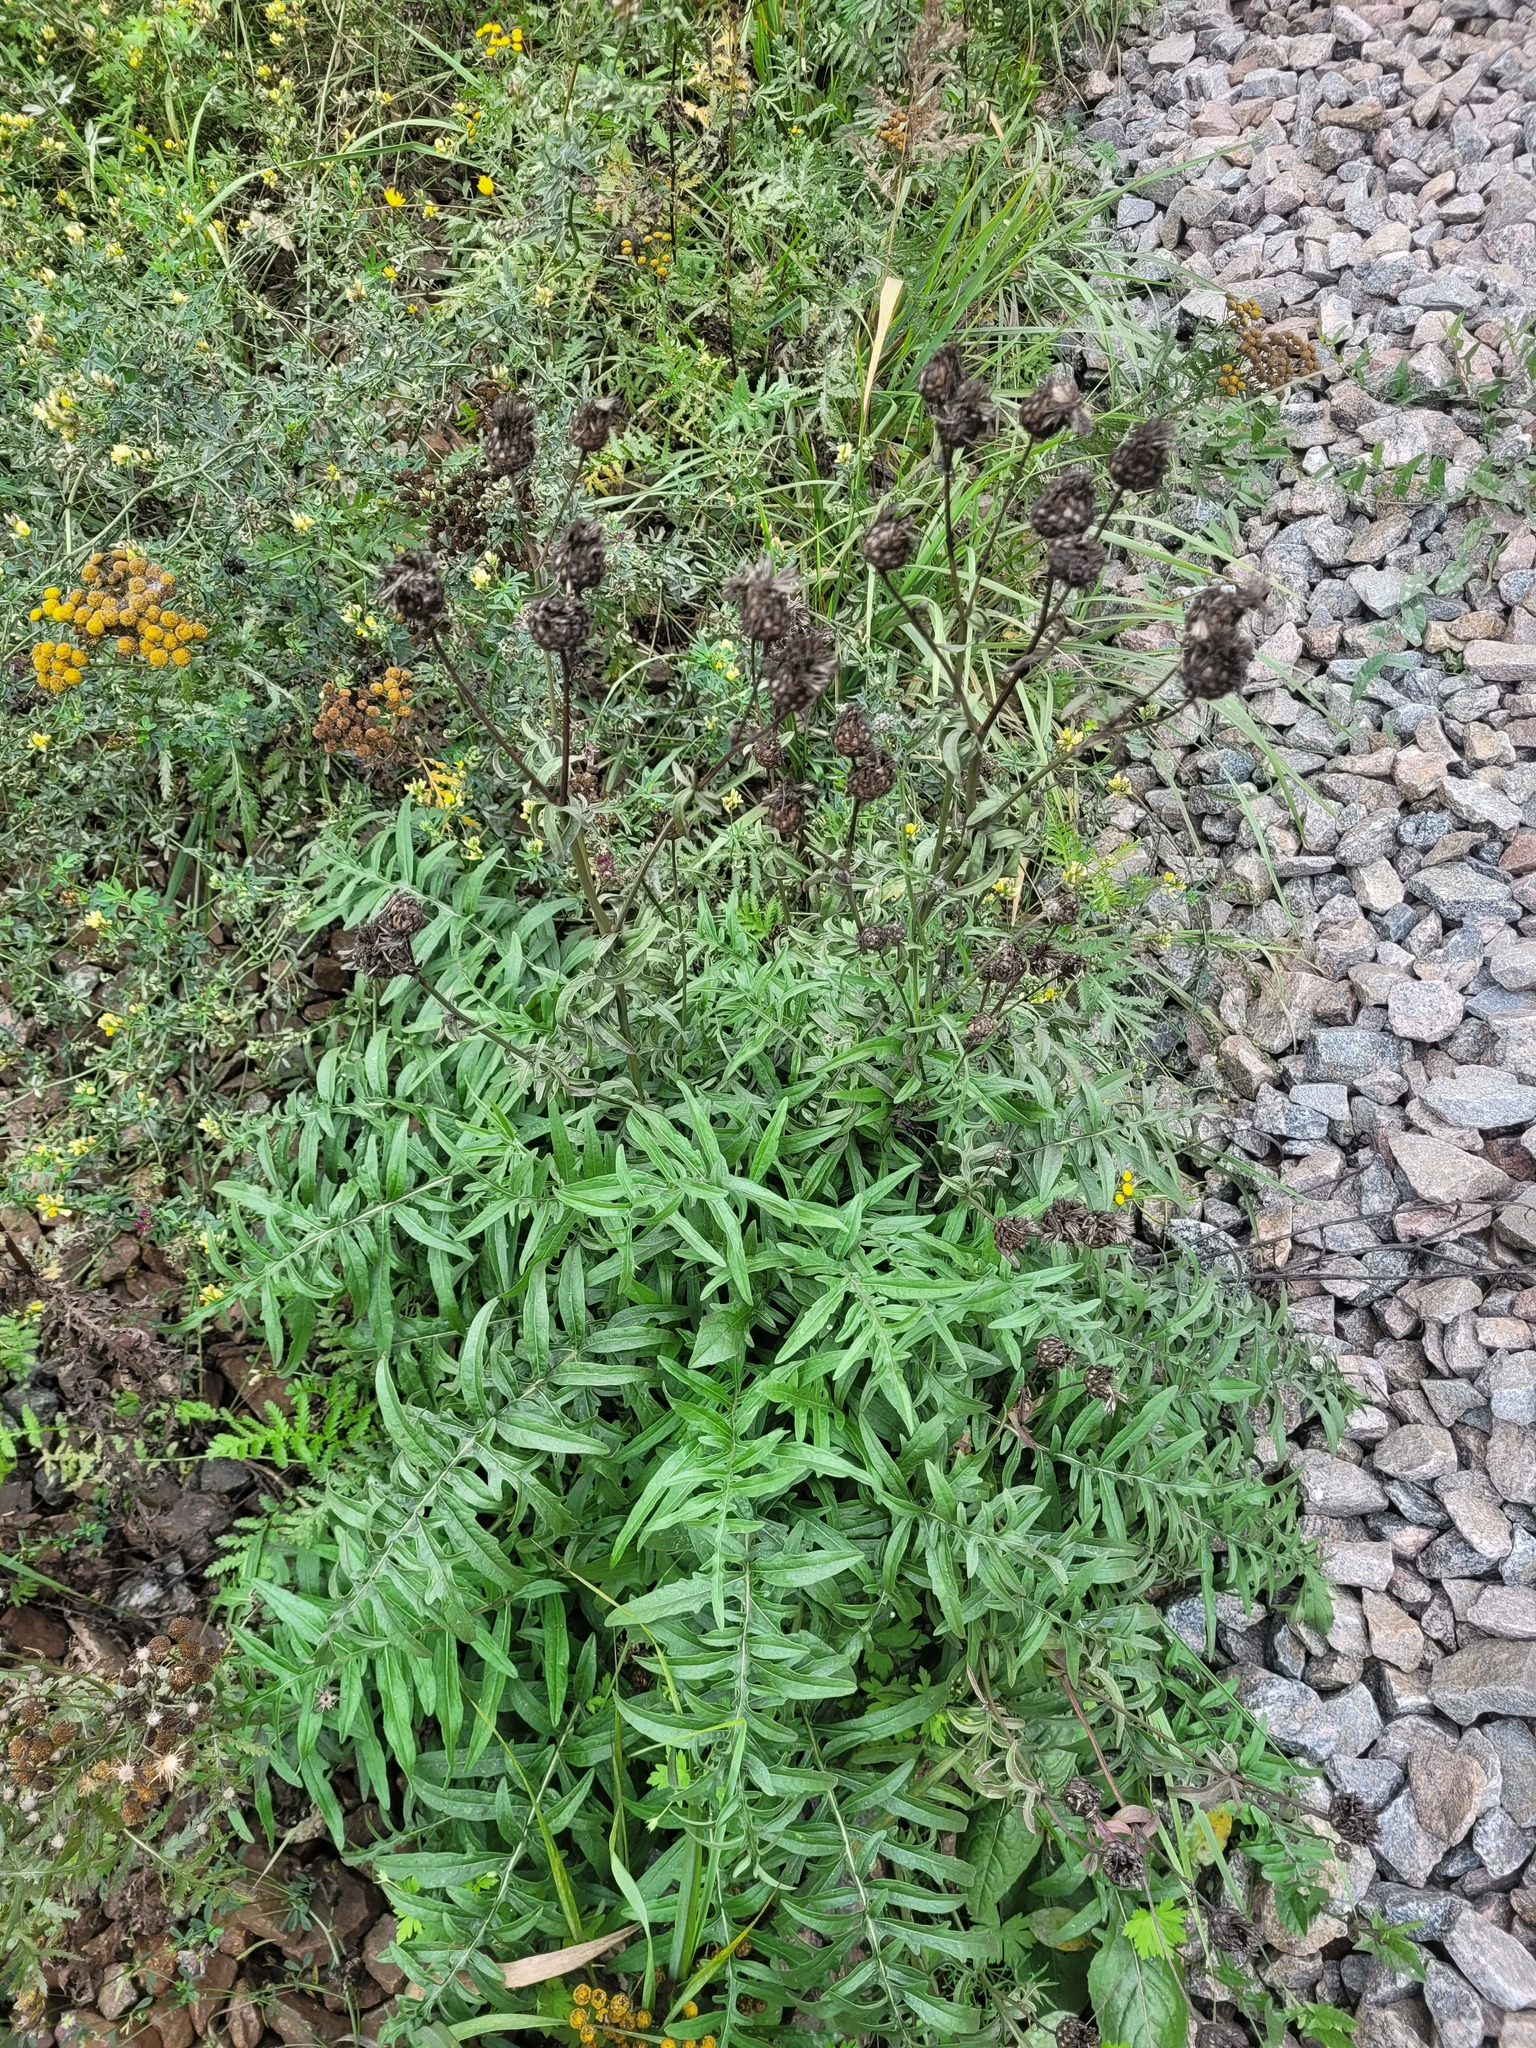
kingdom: Plantae
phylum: Tracheophyta
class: Magnoliopsida
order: Asterales
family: Asteraceae
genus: Centaurea
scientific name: Centaurea scabiosa
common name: Greater knapweed
